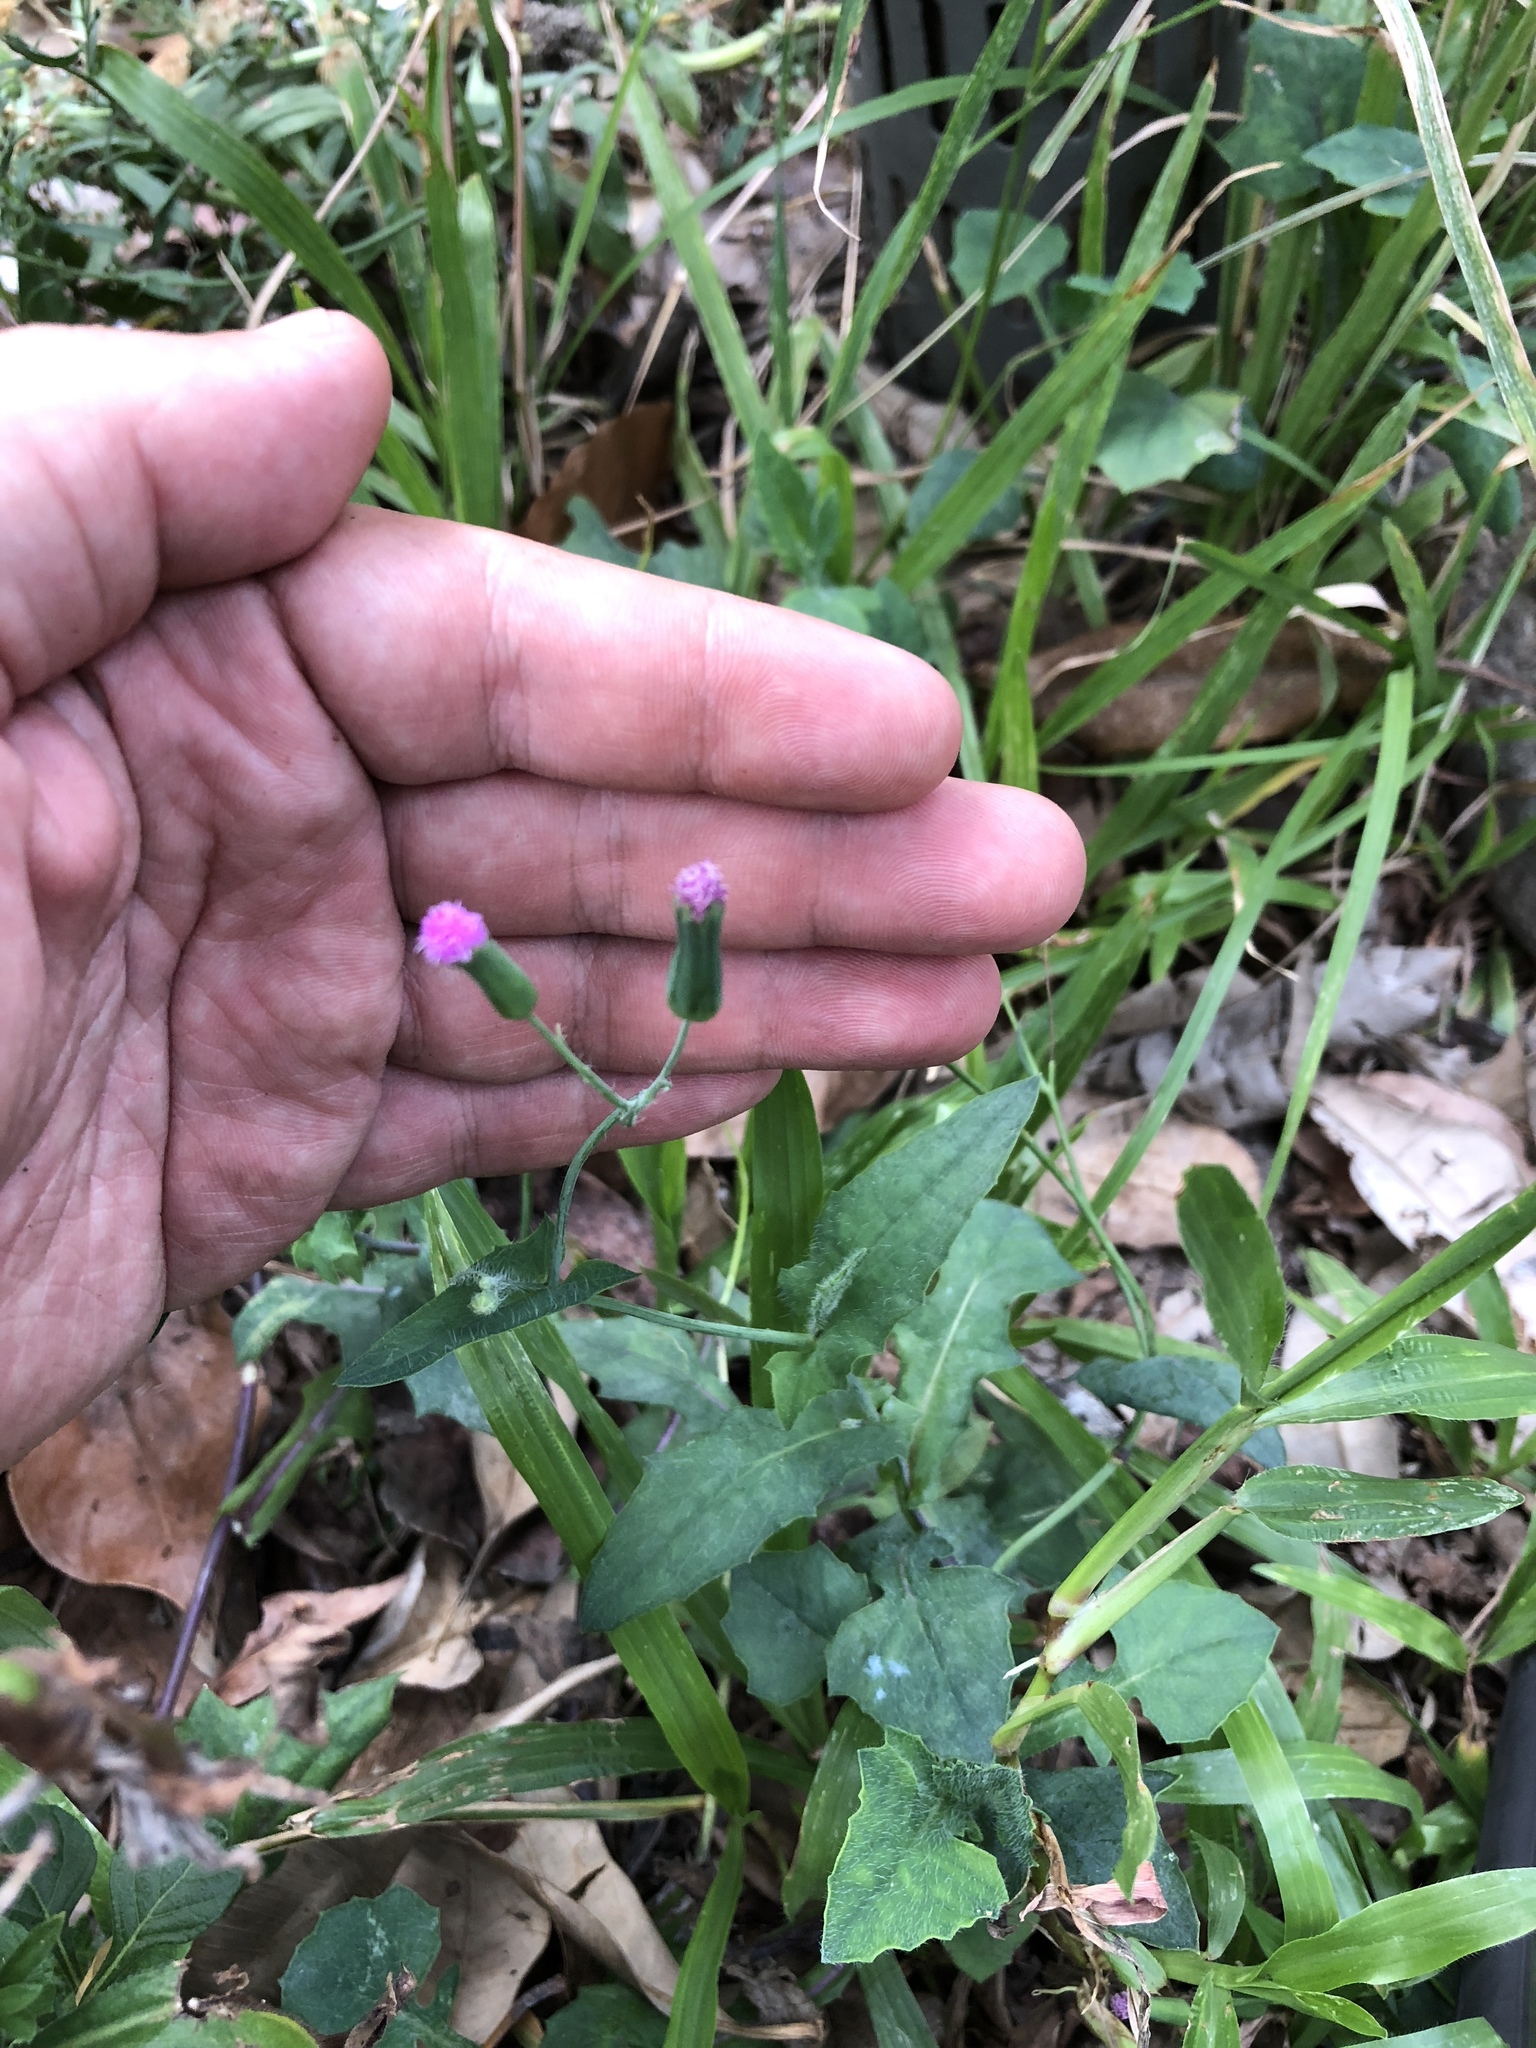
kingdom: Plantae
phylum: Tracheophyta
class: Magnoliopsida
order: Asterales
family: Asteraceae
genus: Emilia
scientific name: Emilia javanica
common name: Tassel-flower
